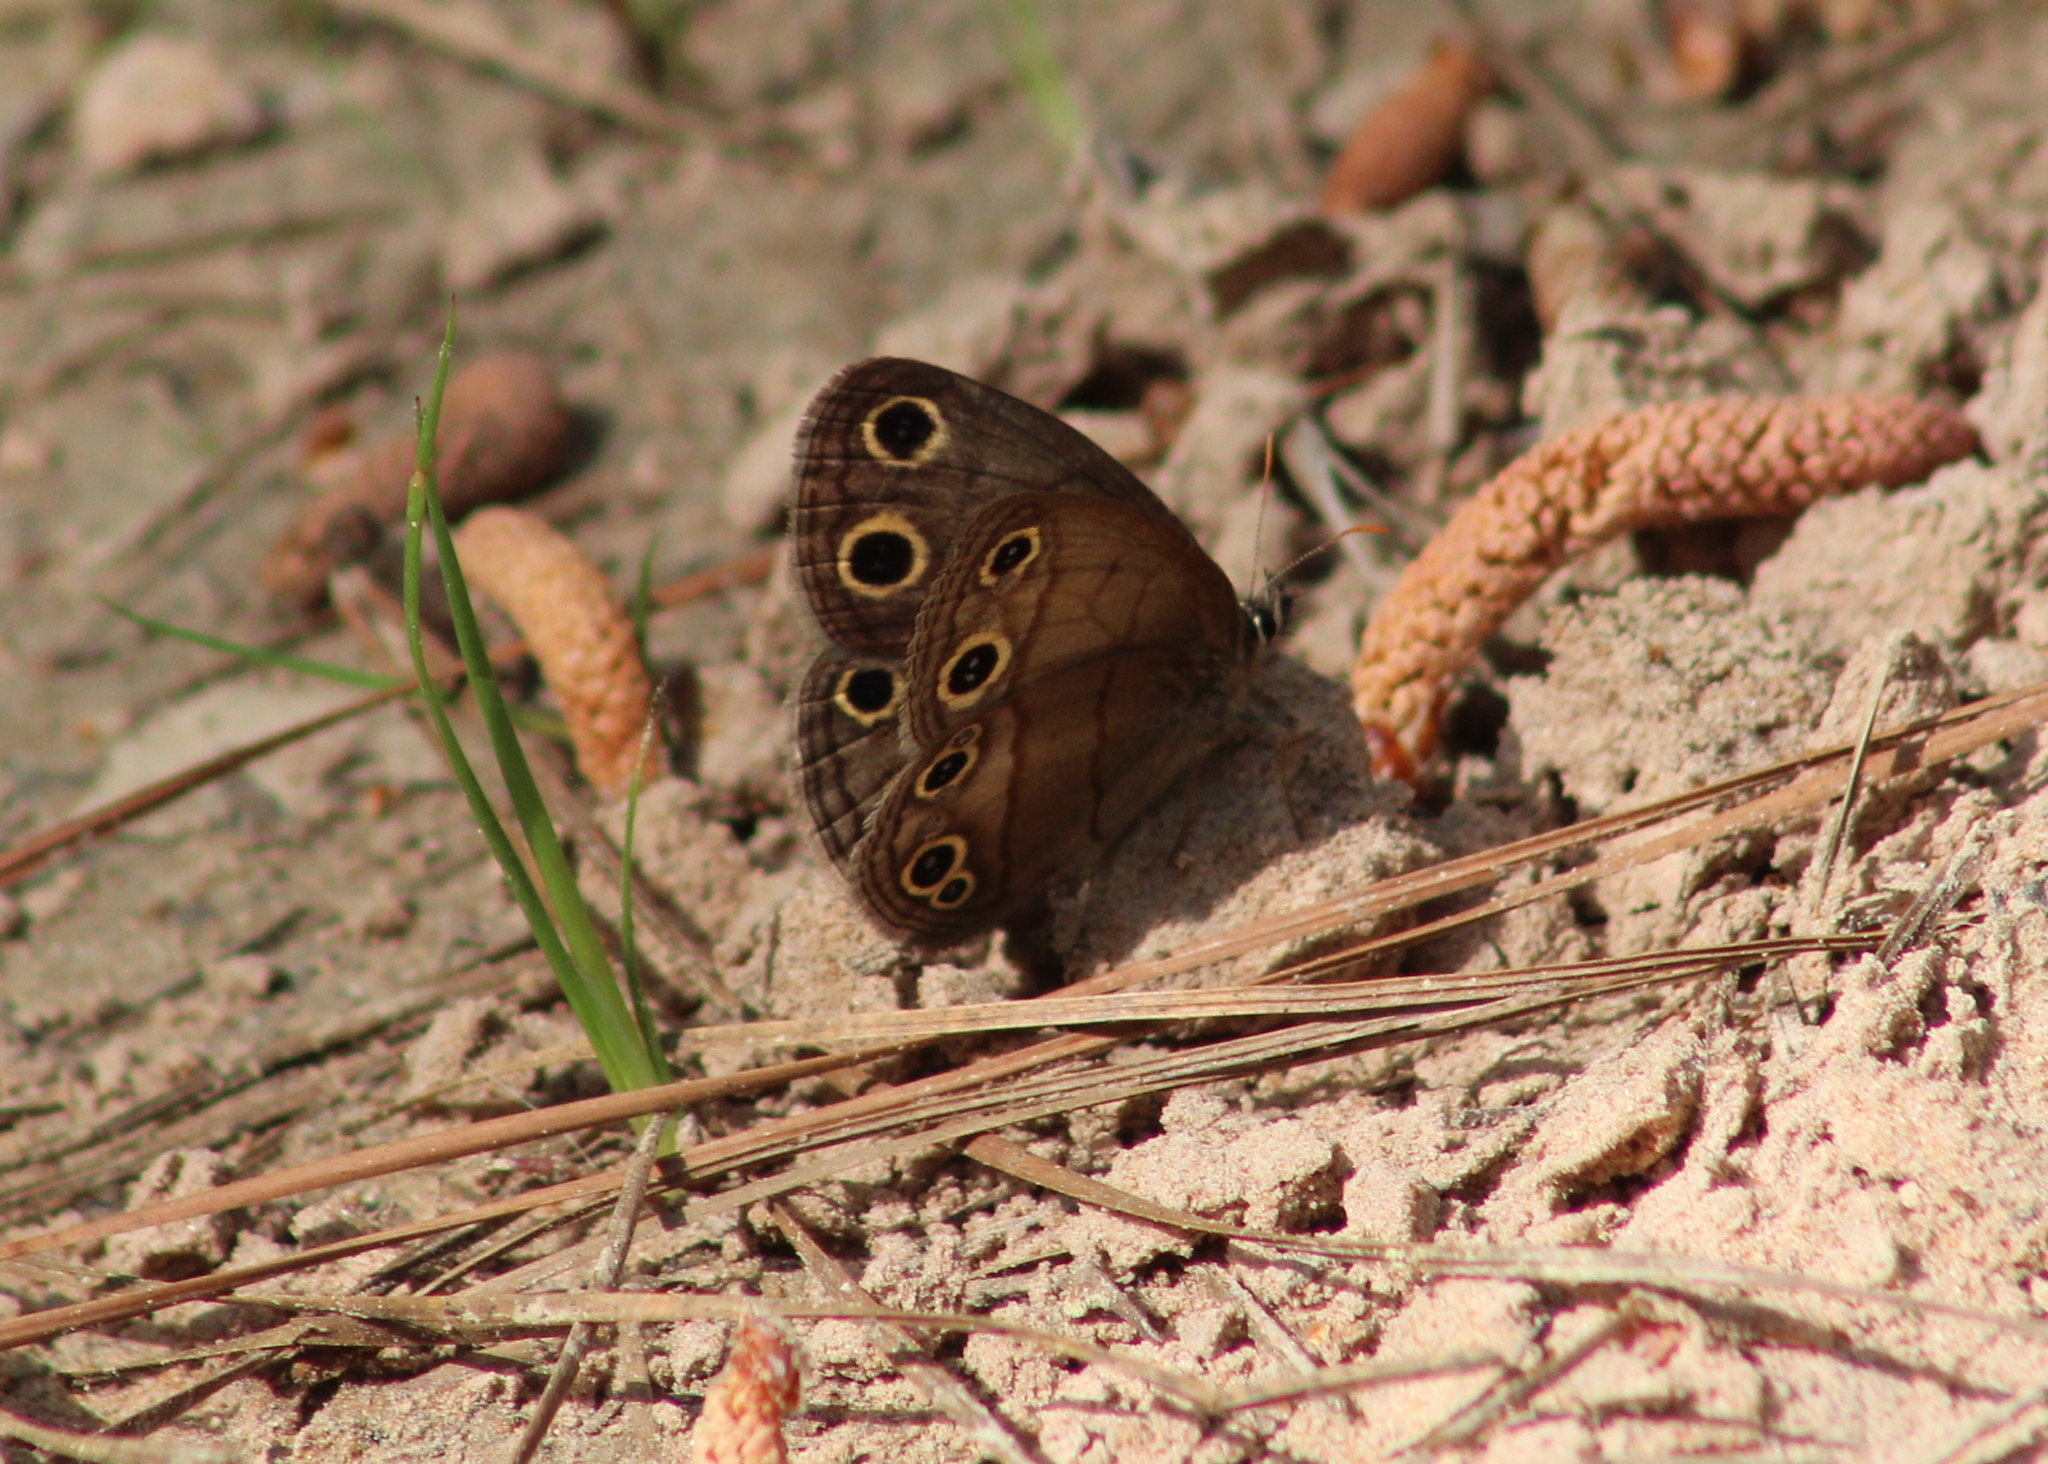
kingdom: Animalia
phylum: Arthropoda
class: Insecta
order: Lepidoptera
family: Nymphalidae
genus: Euptychia
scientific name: Euptychia cymela
